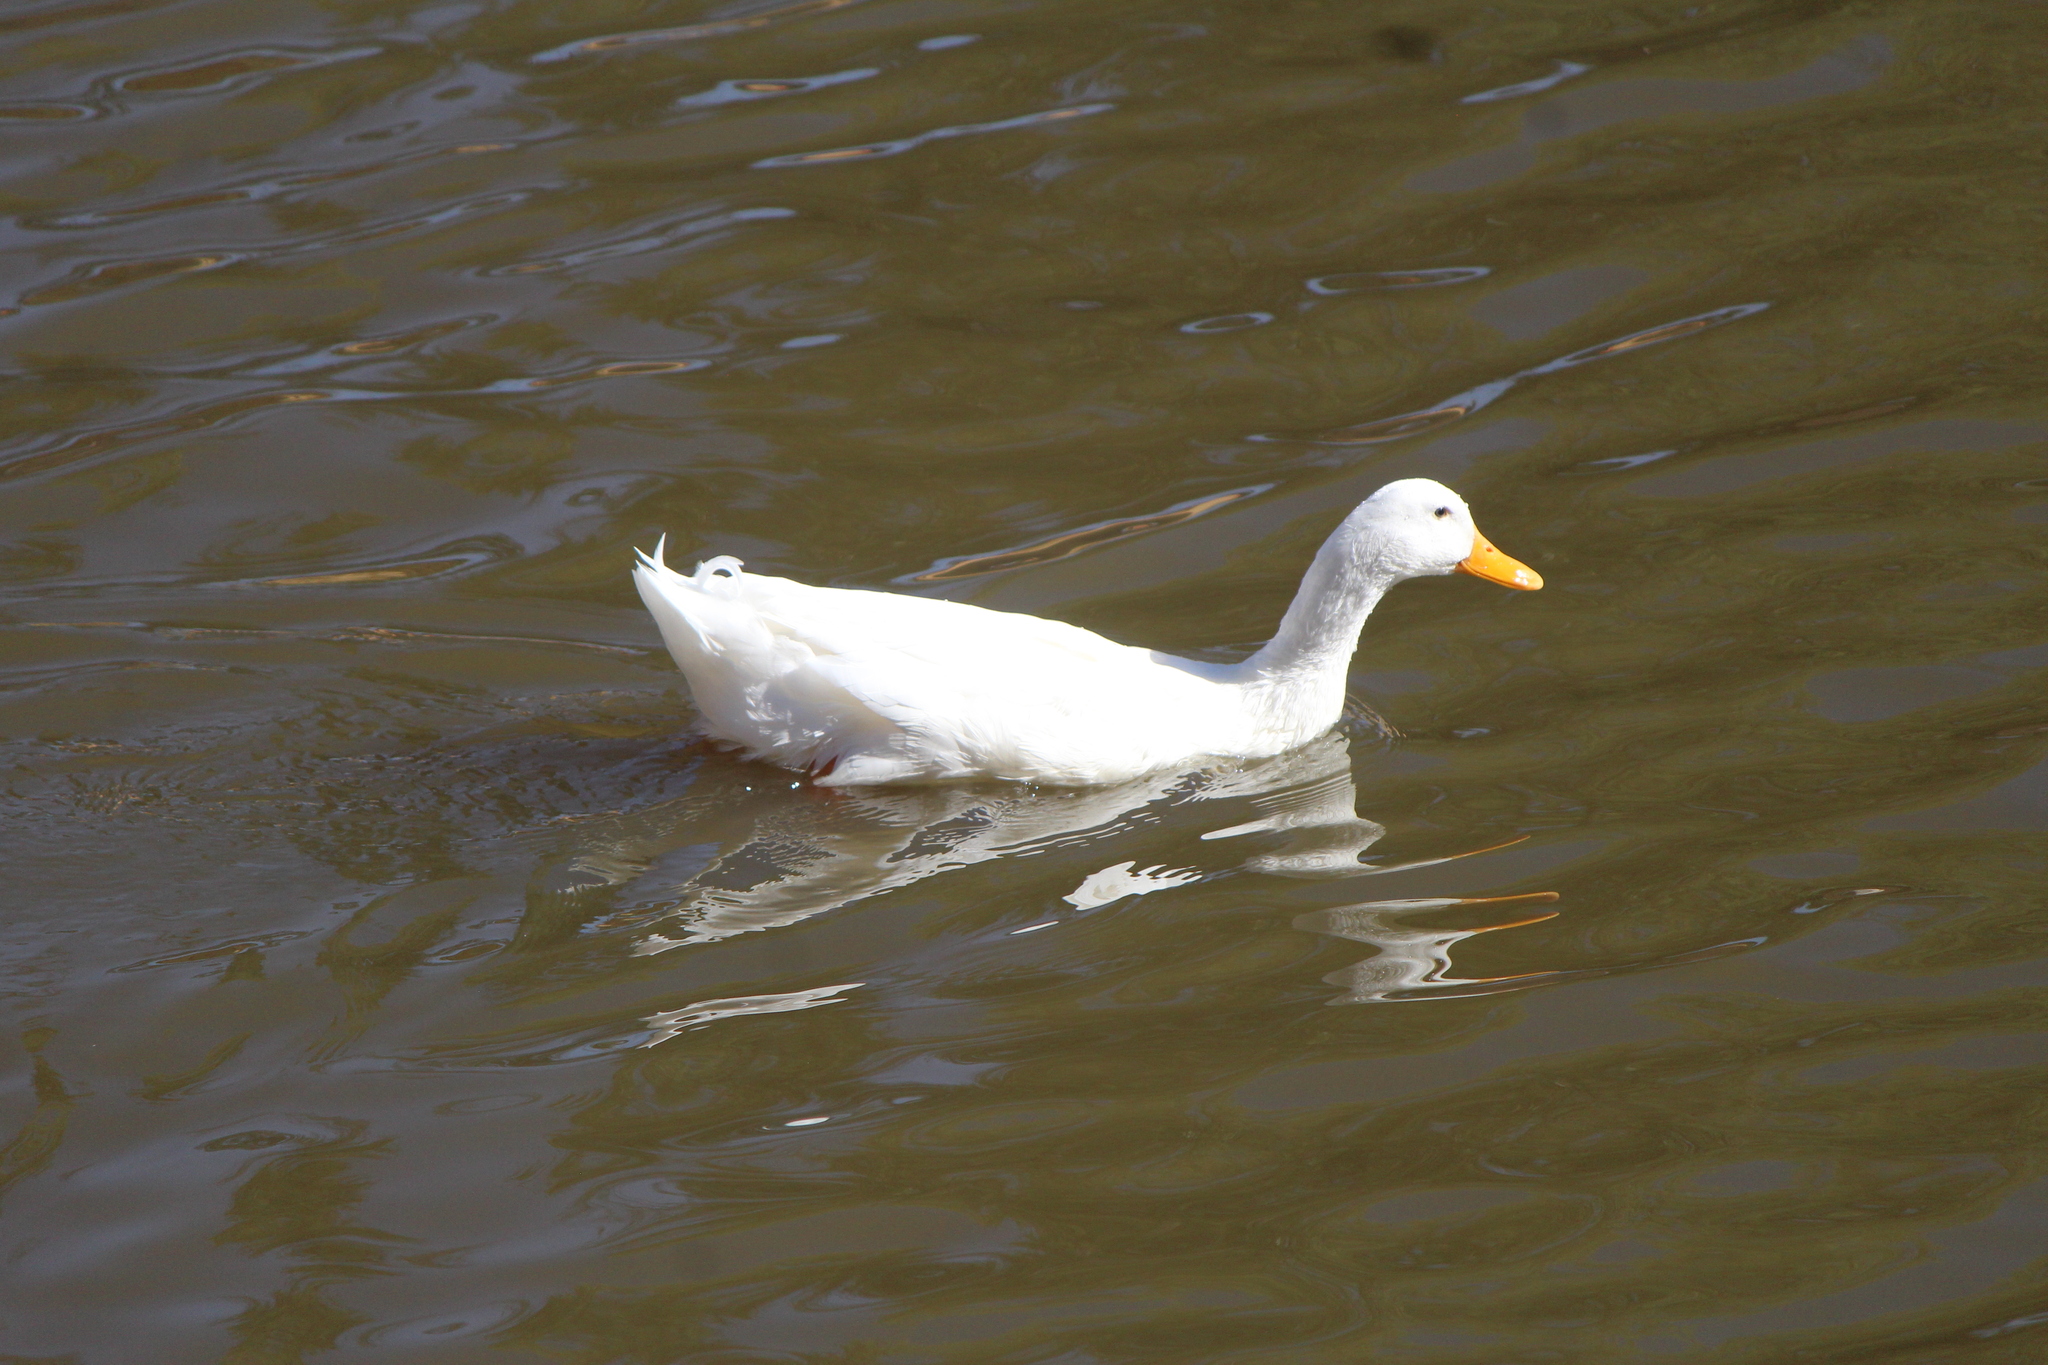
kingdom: Animalia
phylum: Chordata
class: Aves
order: Anseriformes
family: Anatidae
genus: Anas
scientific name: Anas platyrhynchos
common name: Mallard
